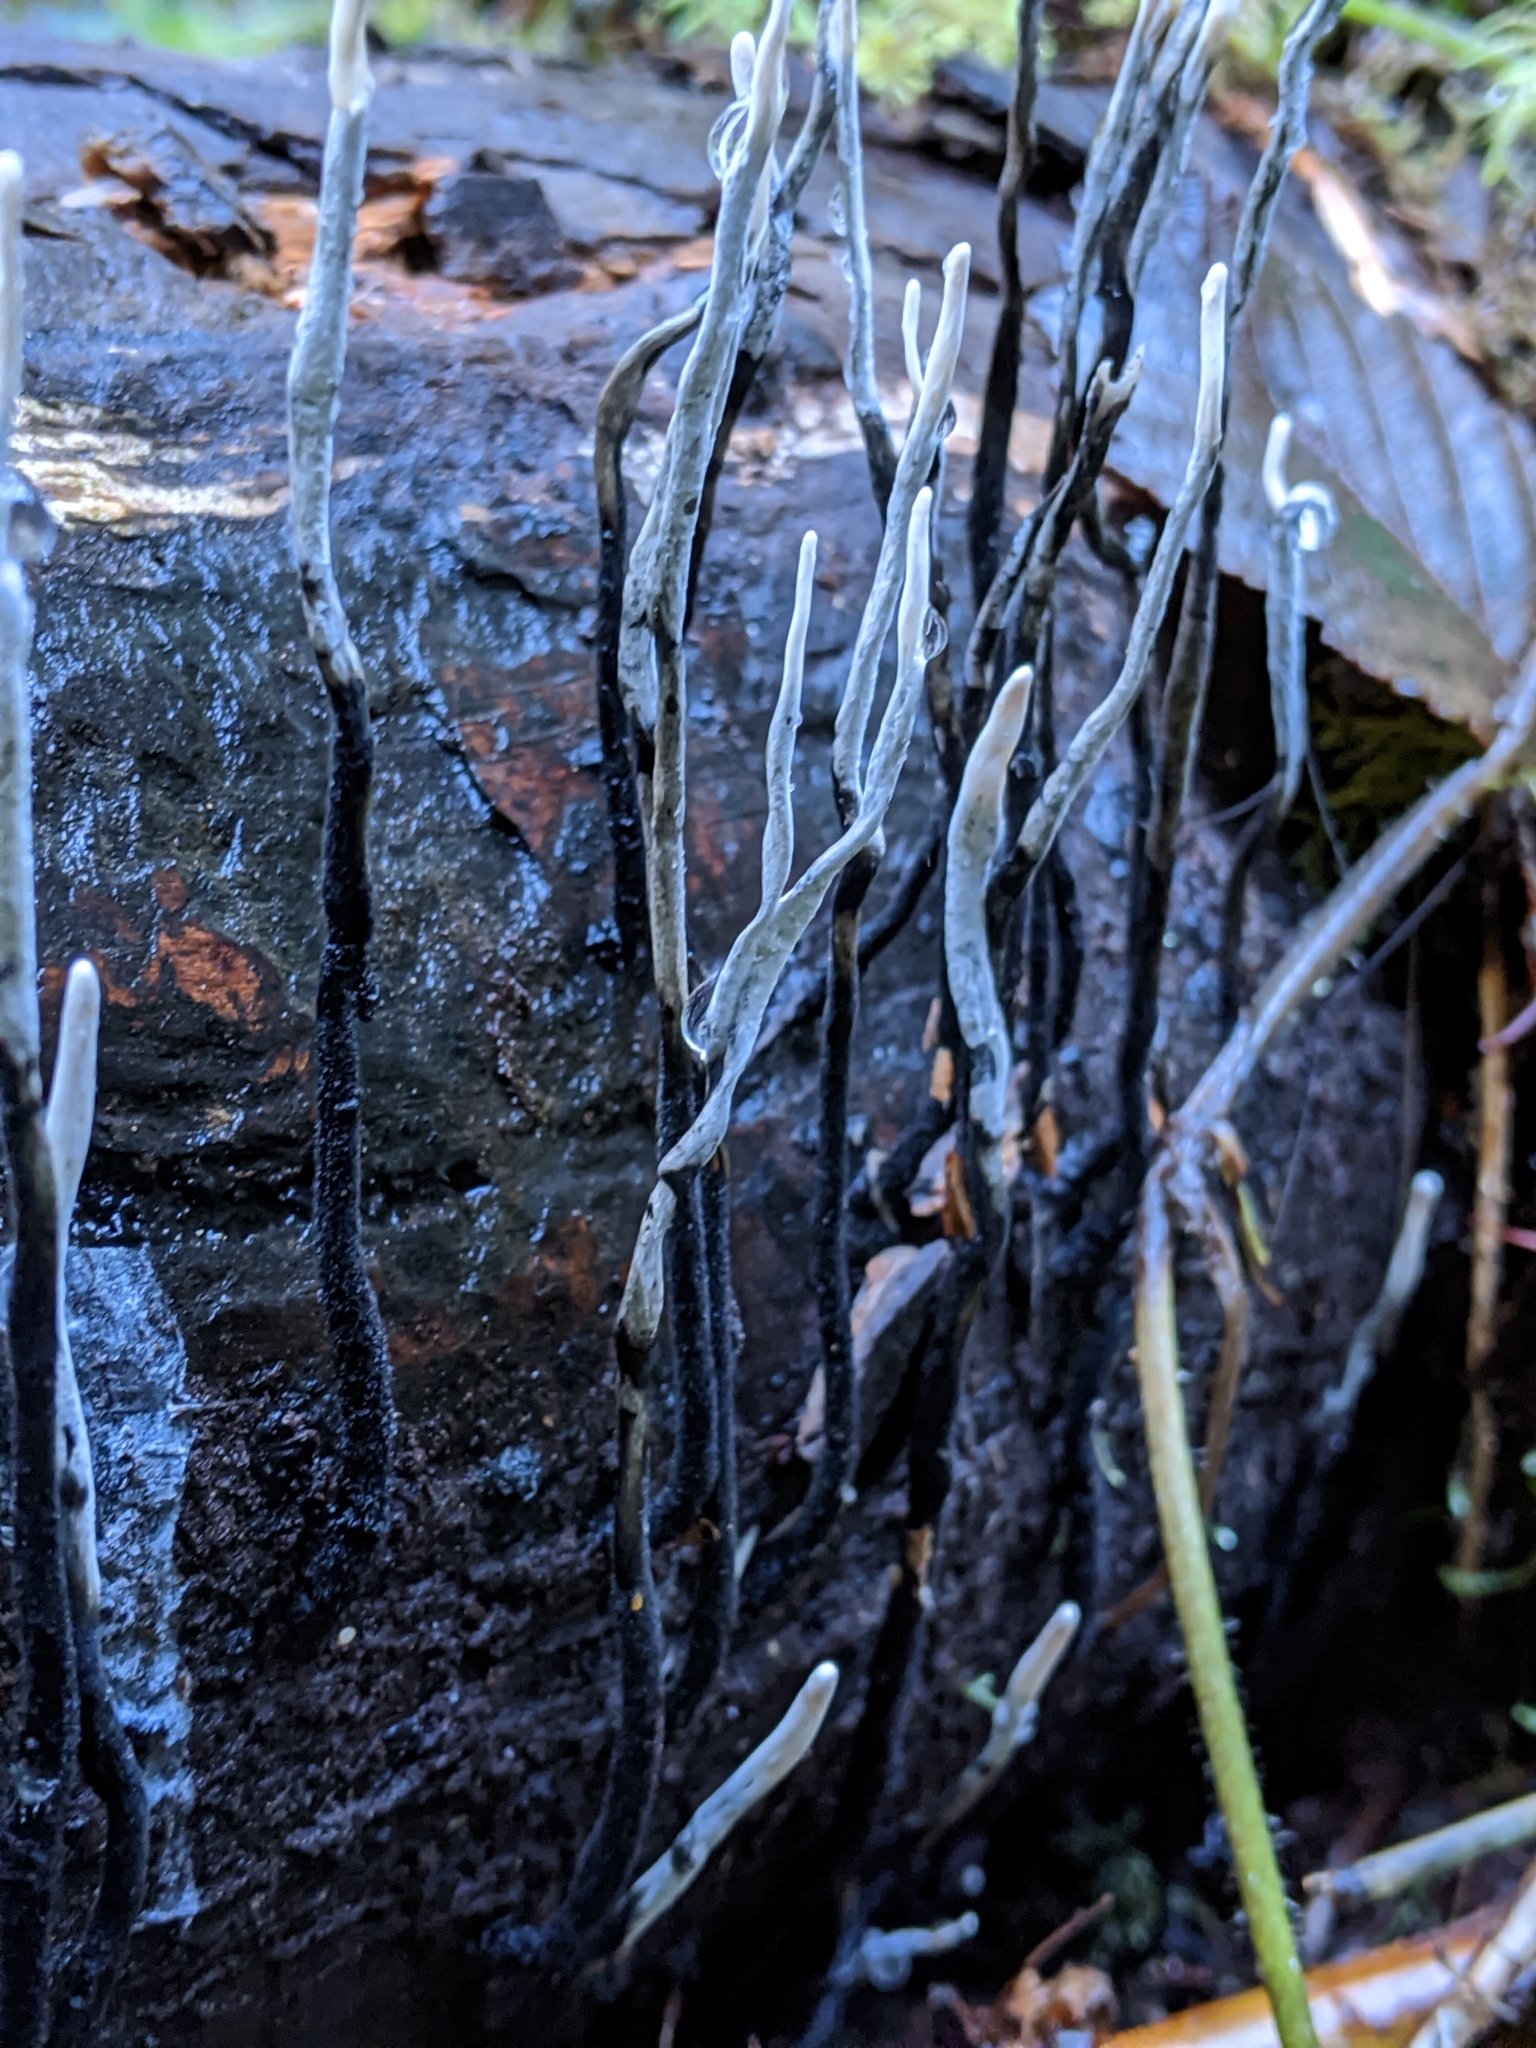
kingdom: Fungi
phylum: Ascomycota
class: Sordariomycetes
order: Xylariales
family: Xylariaceae
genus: Xylaria
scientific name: Xylaria hypoxylon
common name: Candle-snuff fungus
